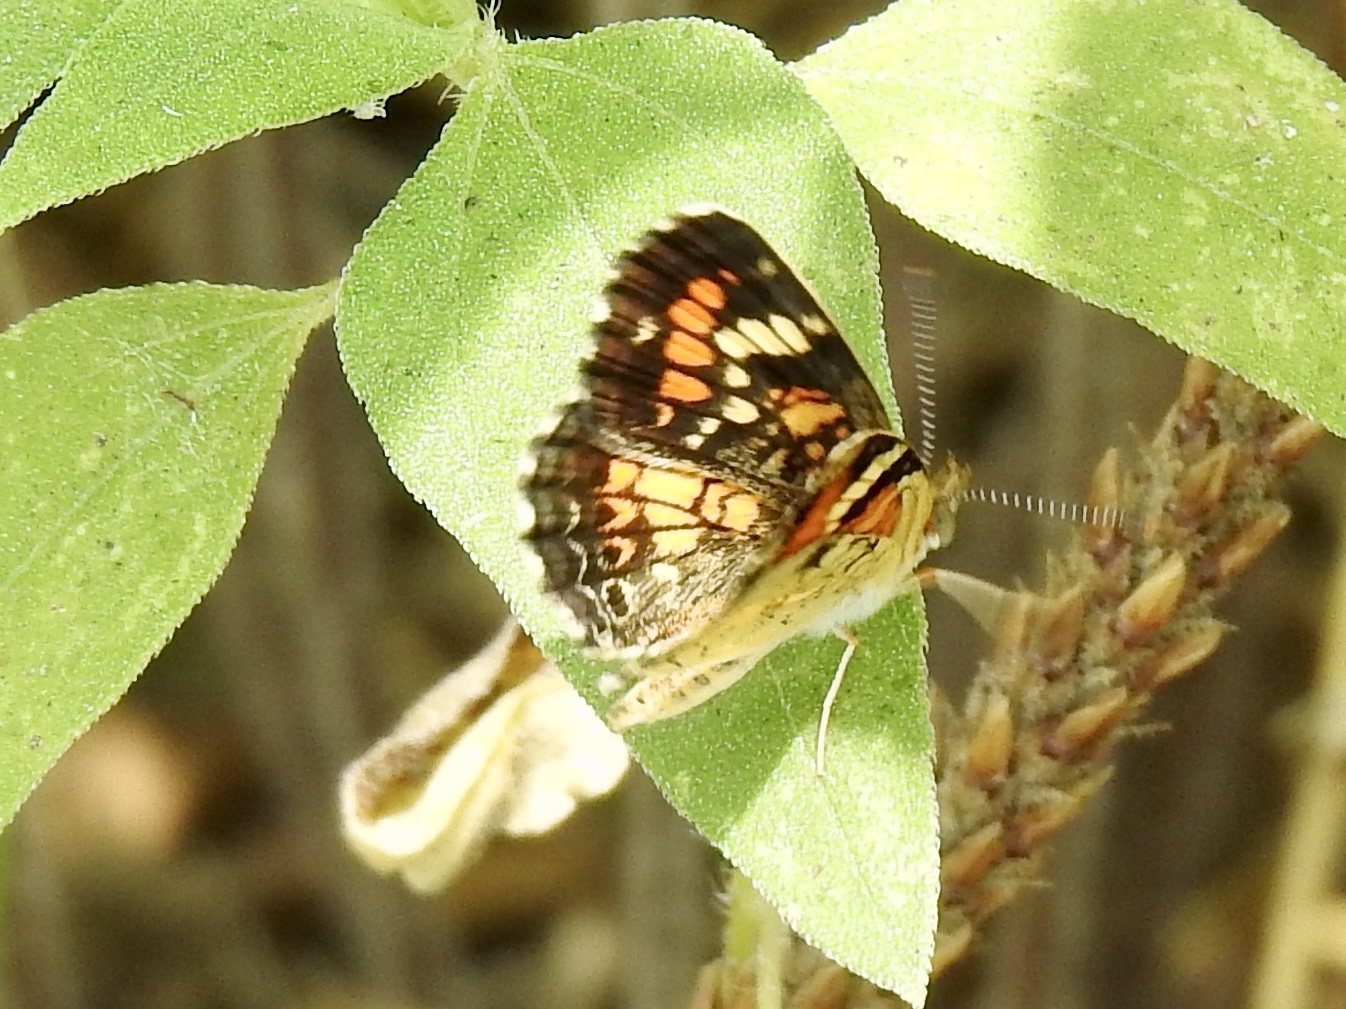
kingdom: Animalia
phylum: Arthropoda
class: Insecta
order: Lepidoptera
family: Nymphalidae
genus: Phyciodes
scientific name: Phyciodes phaon
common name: Phaon crescent
